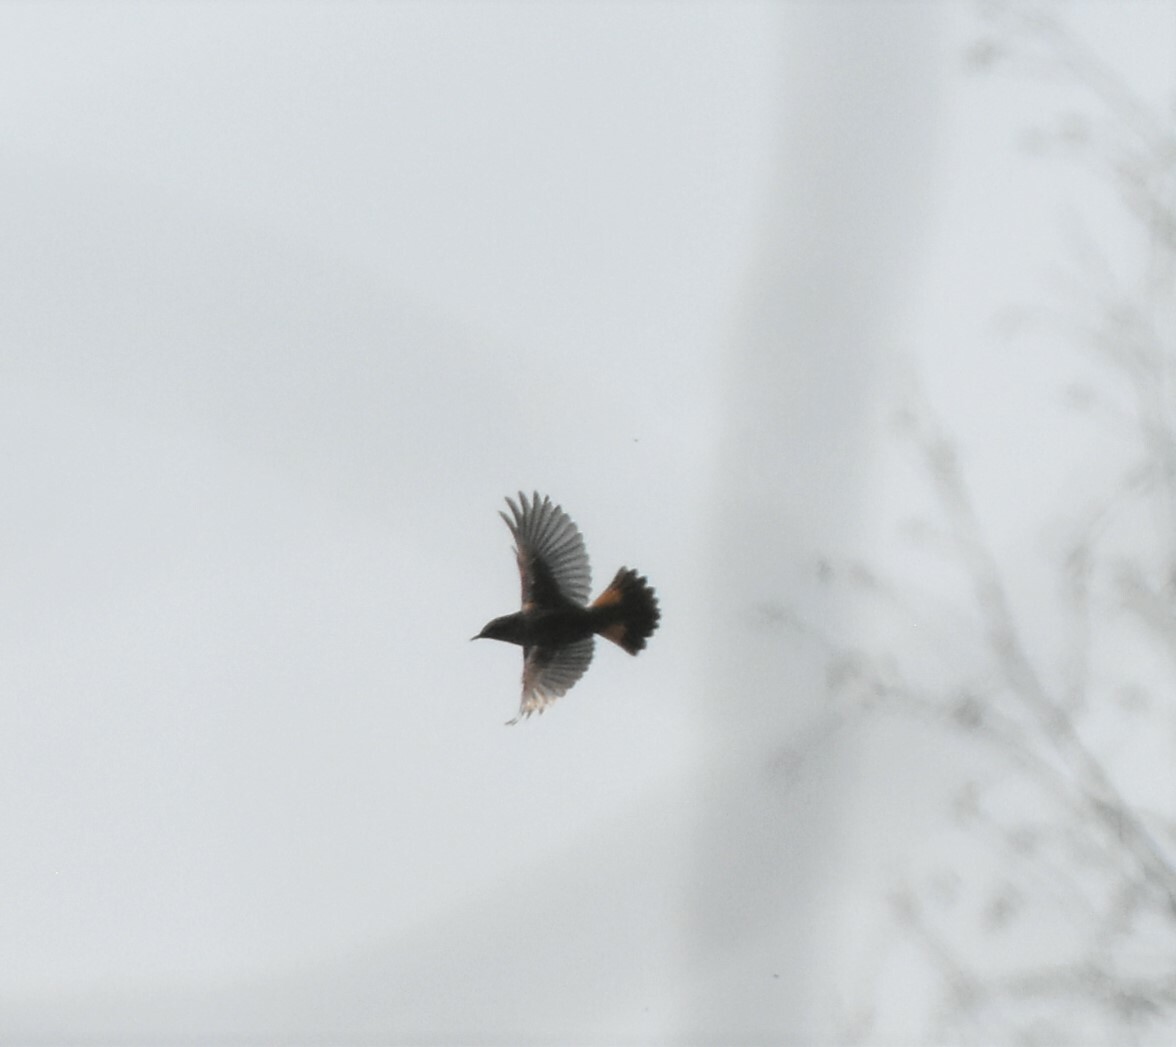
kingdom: Animalia
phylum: Chordata
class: Aves
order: Passeriformes
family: Muscicapidae
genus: Luscinia
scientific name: Luscinia svecica
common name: Bluethroat
